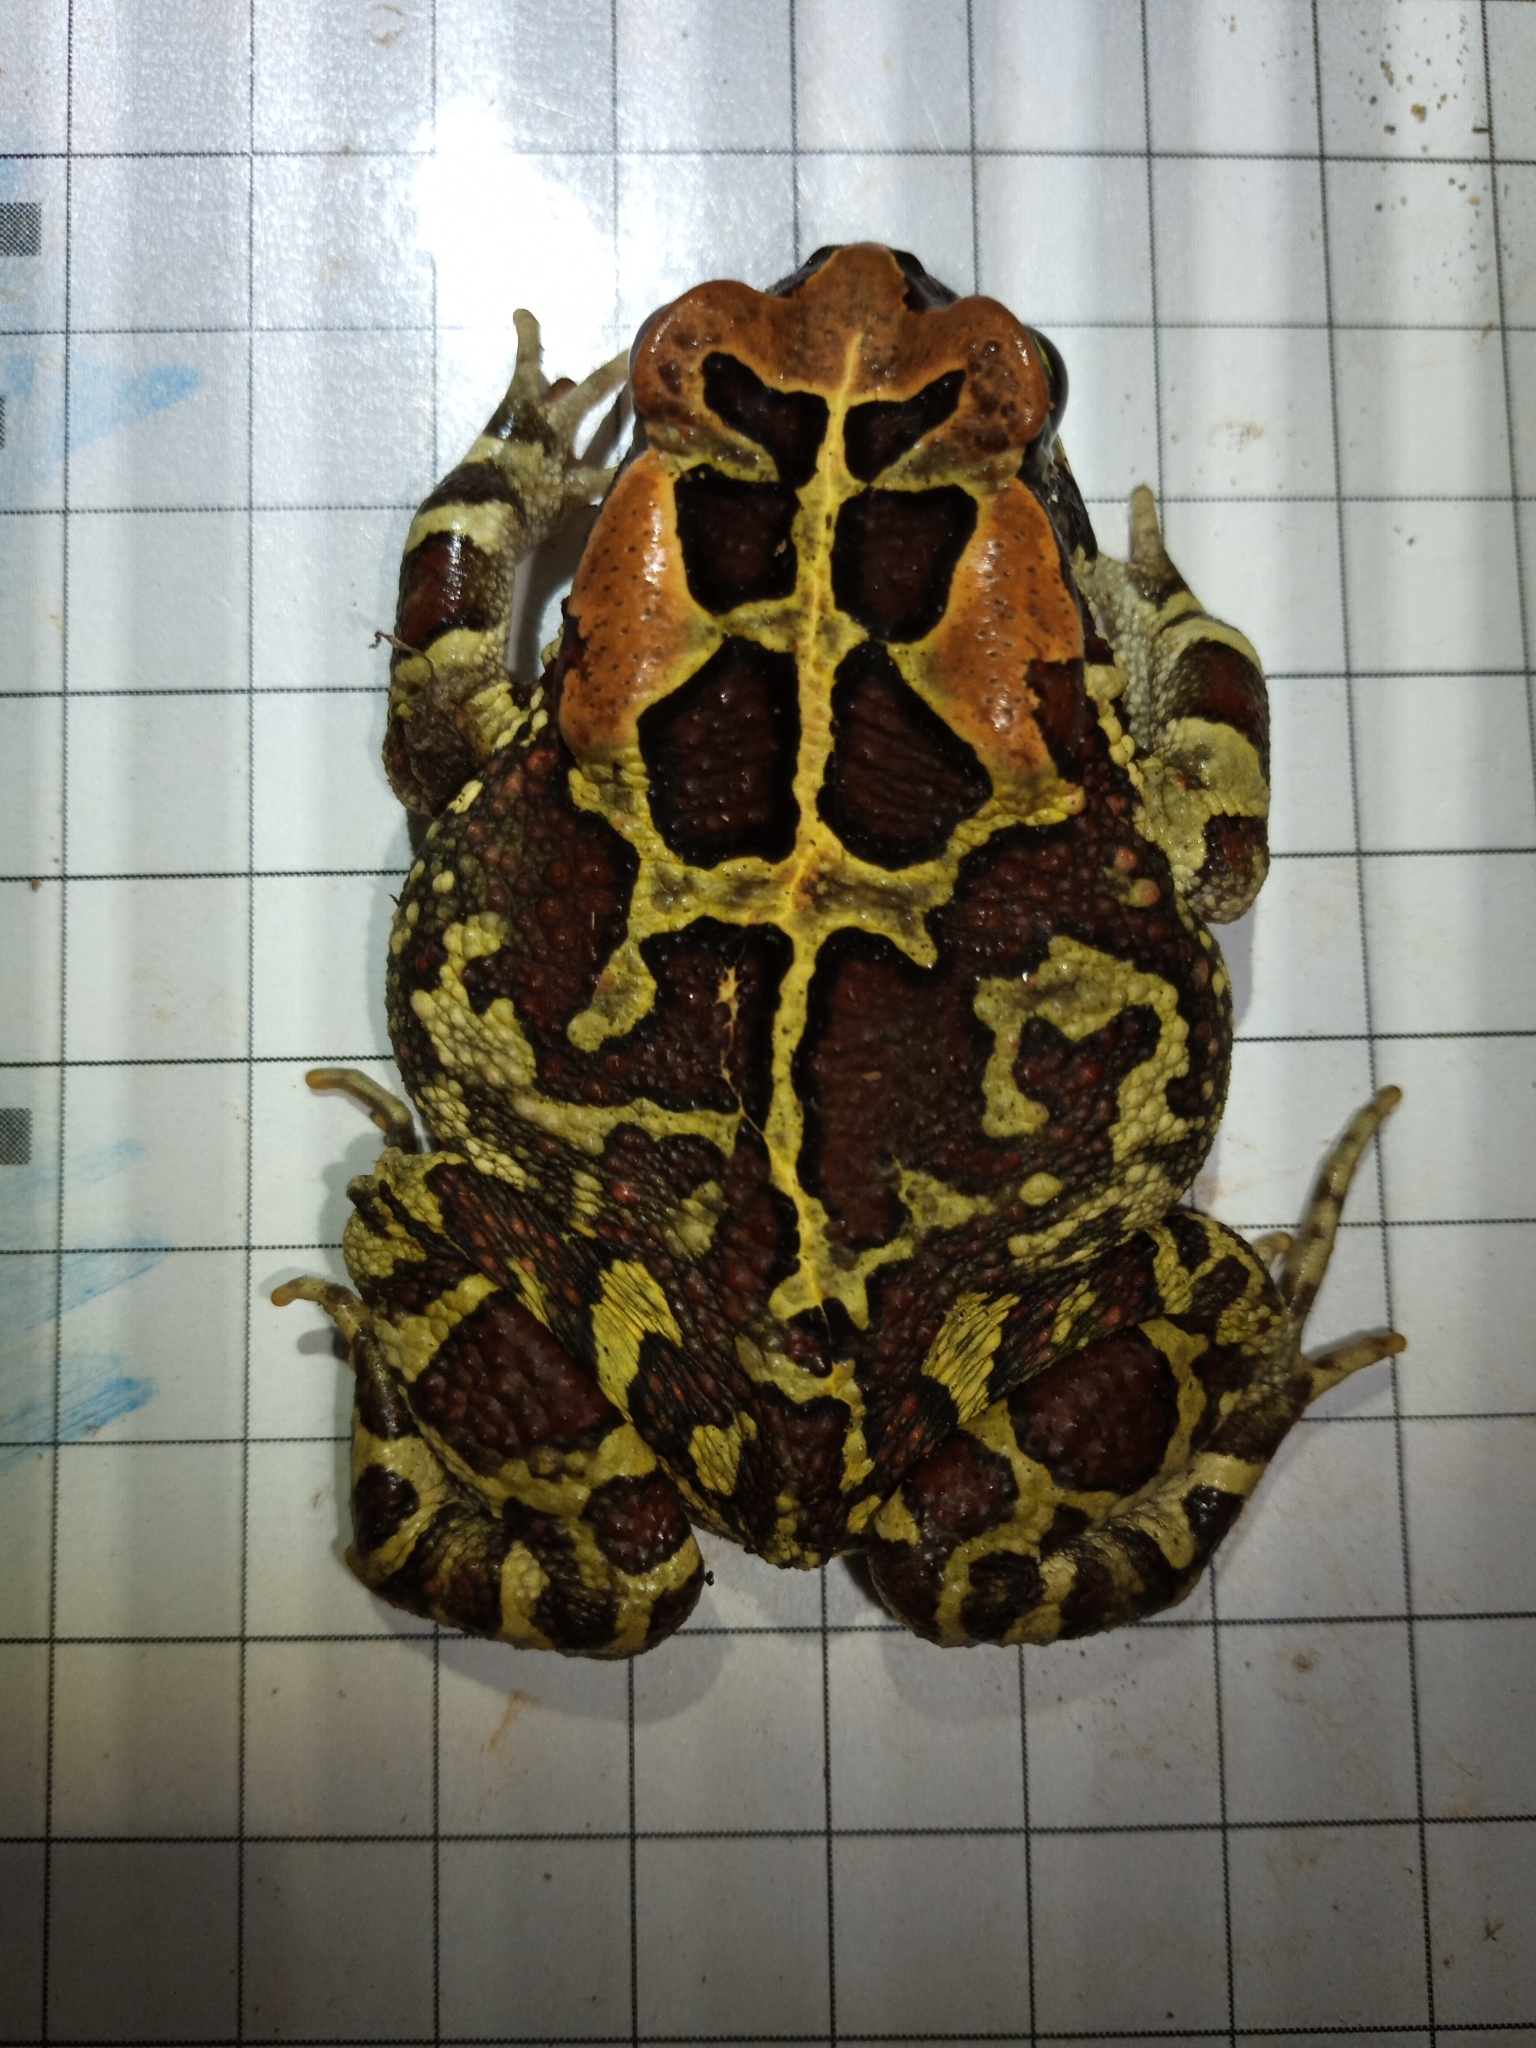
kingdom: Animalia
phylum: Chordata
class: Amphibia
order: Anura
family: Bufonidae
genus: Sclerophrys
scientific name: Sclerophrys pantherina
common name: Panther toad
